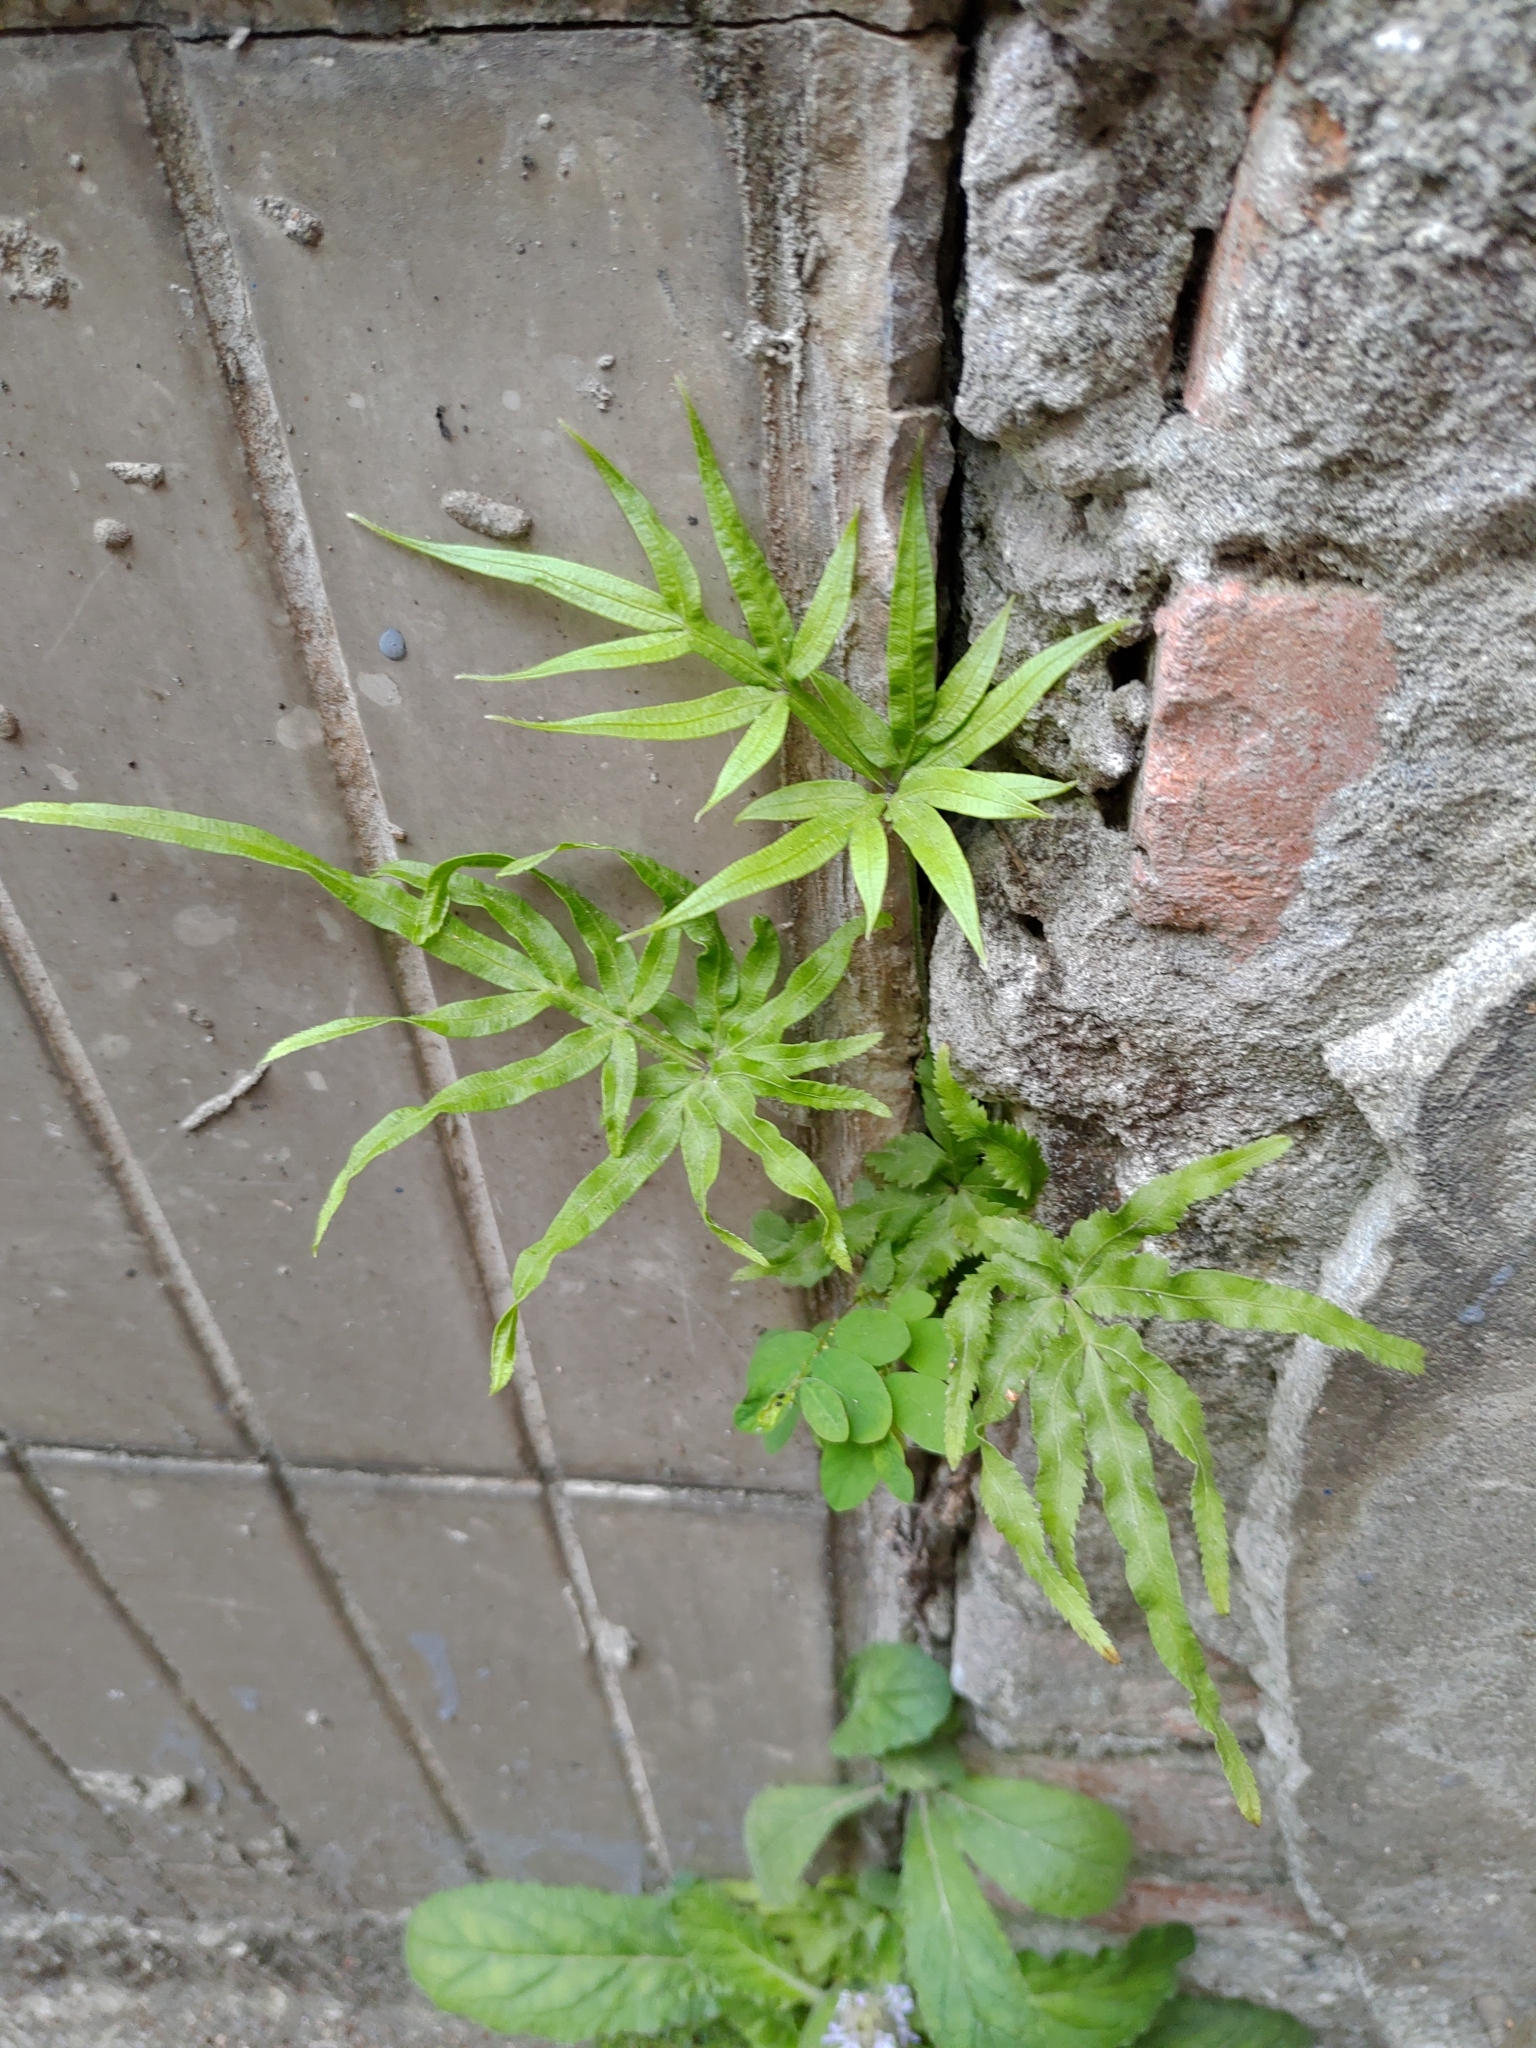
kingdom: Plantae
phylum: Tracheophyta
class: Polypodiopsida
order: Polypodiales
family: Pteridaceae
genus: Pteris
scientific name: Pteris multifida
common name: Spider brake
